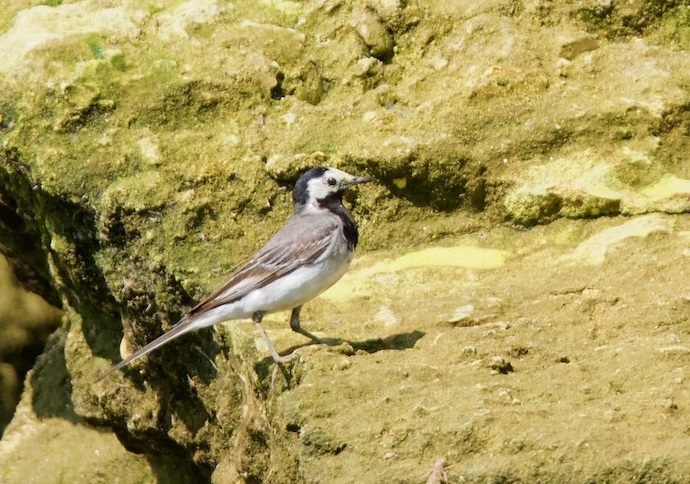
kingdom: Animalia
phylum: Chordata
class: Aves
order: Passeriformes
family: Motacillidae
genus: Motacilla
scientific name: Motacilla alba
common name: White wagtail
